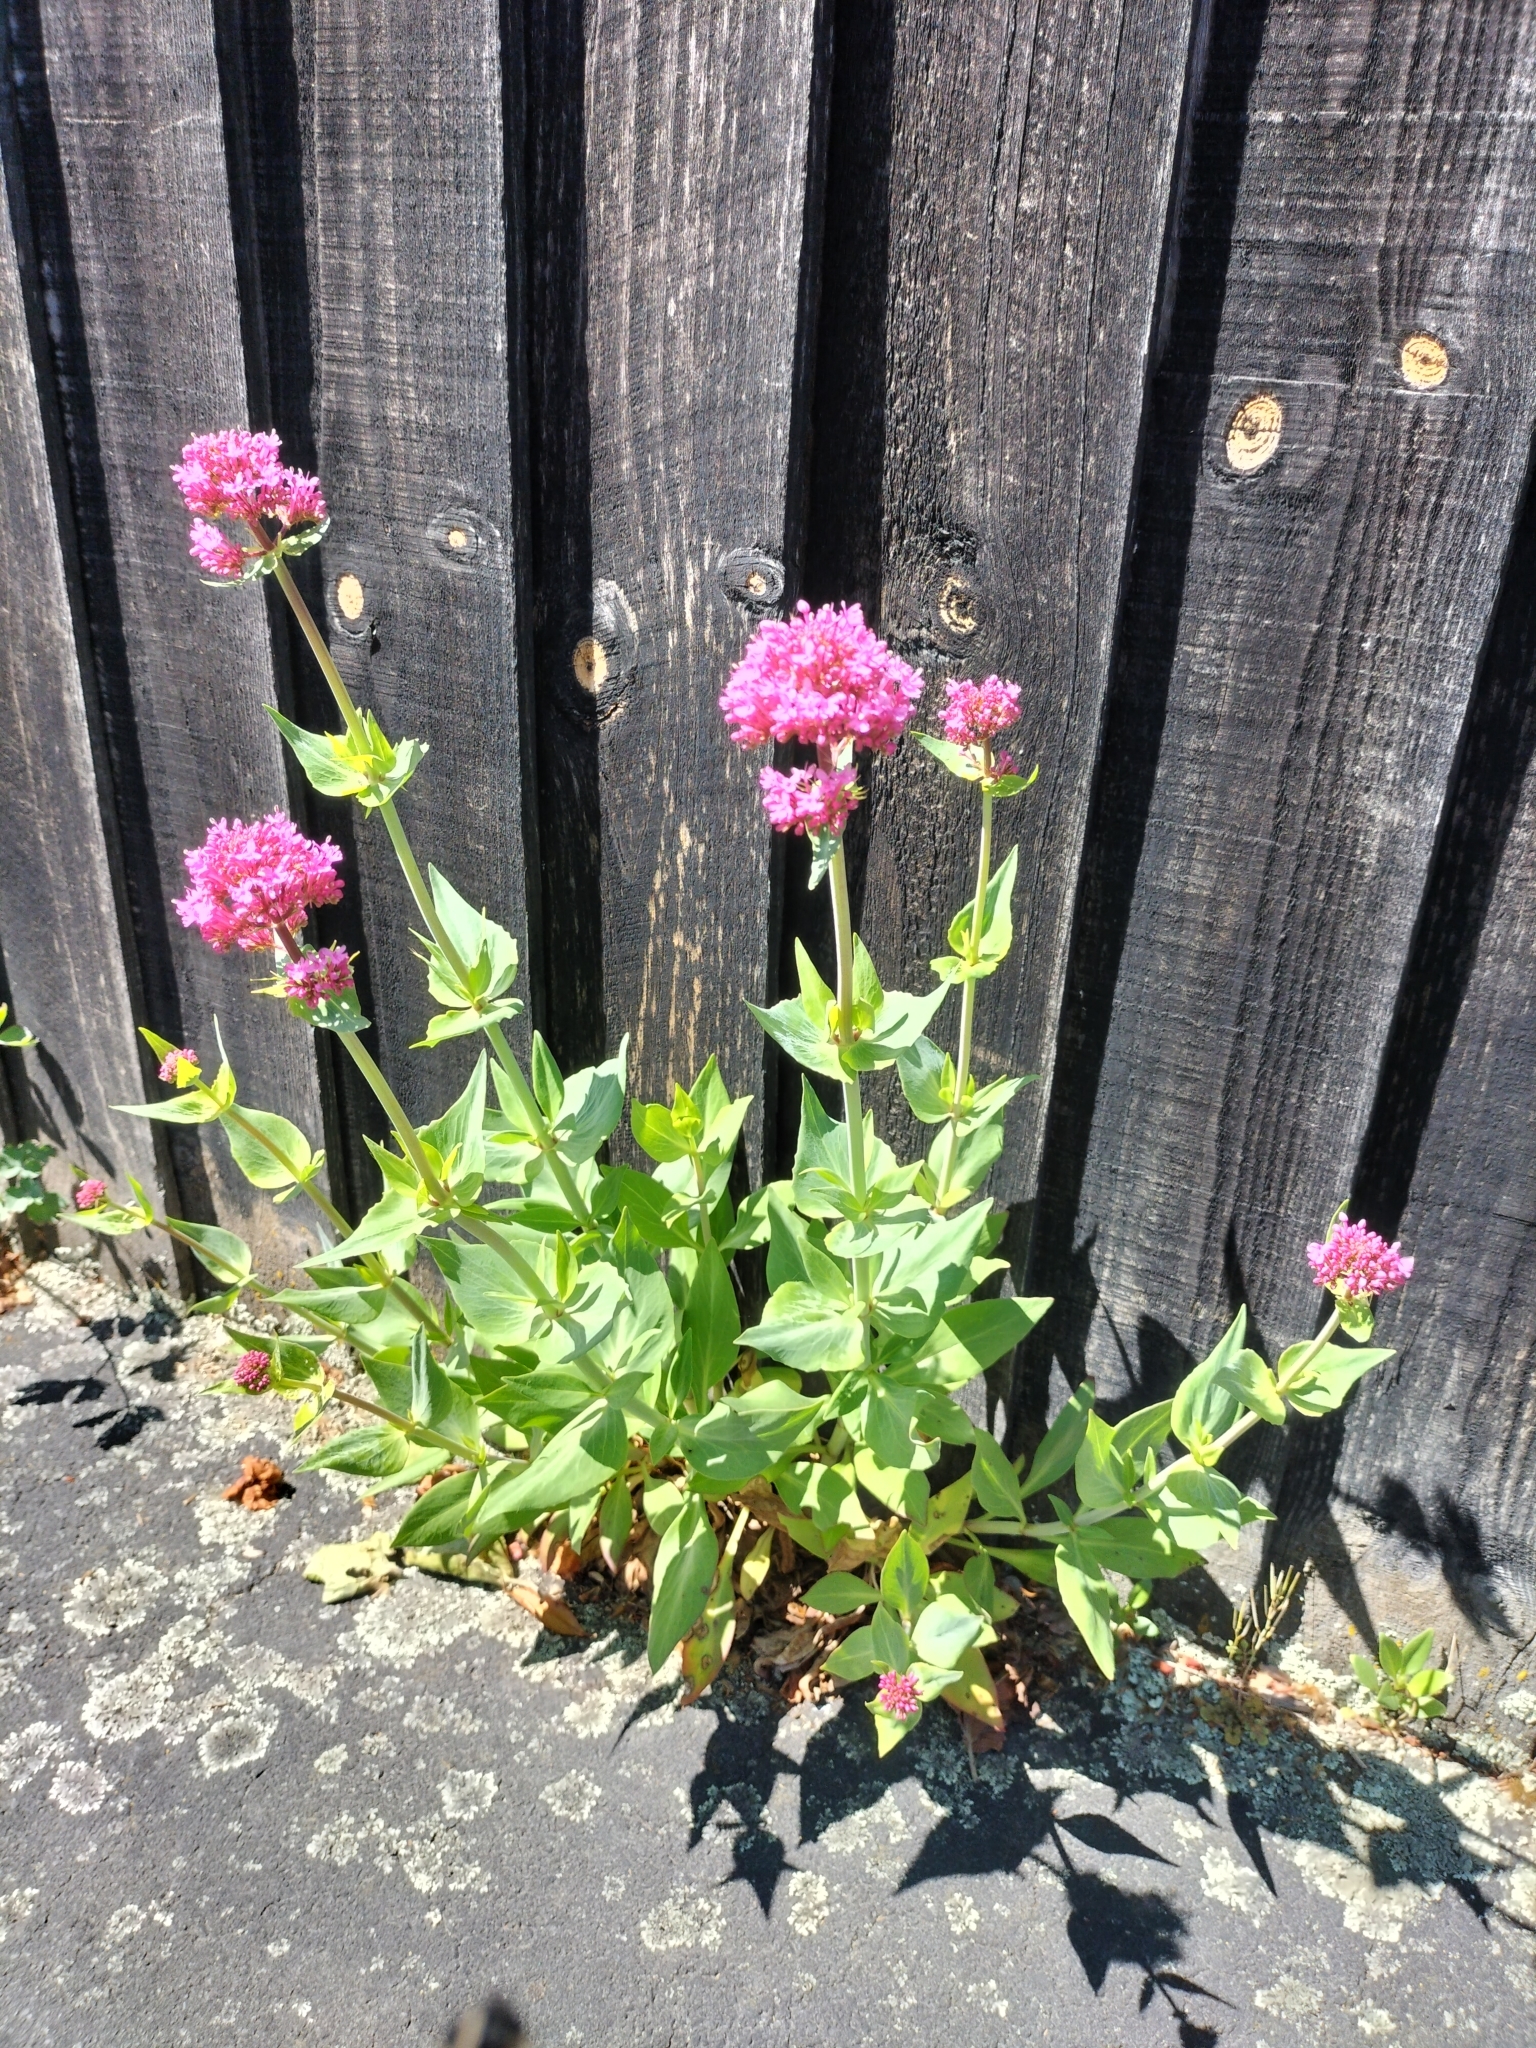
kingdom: Plantae
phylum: Tracheophyta
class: Magnoliopsida
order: Dipsacales
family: Caprifoliaceae
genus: Centranthus
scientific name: Centranthus ruber
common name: Red valerian
